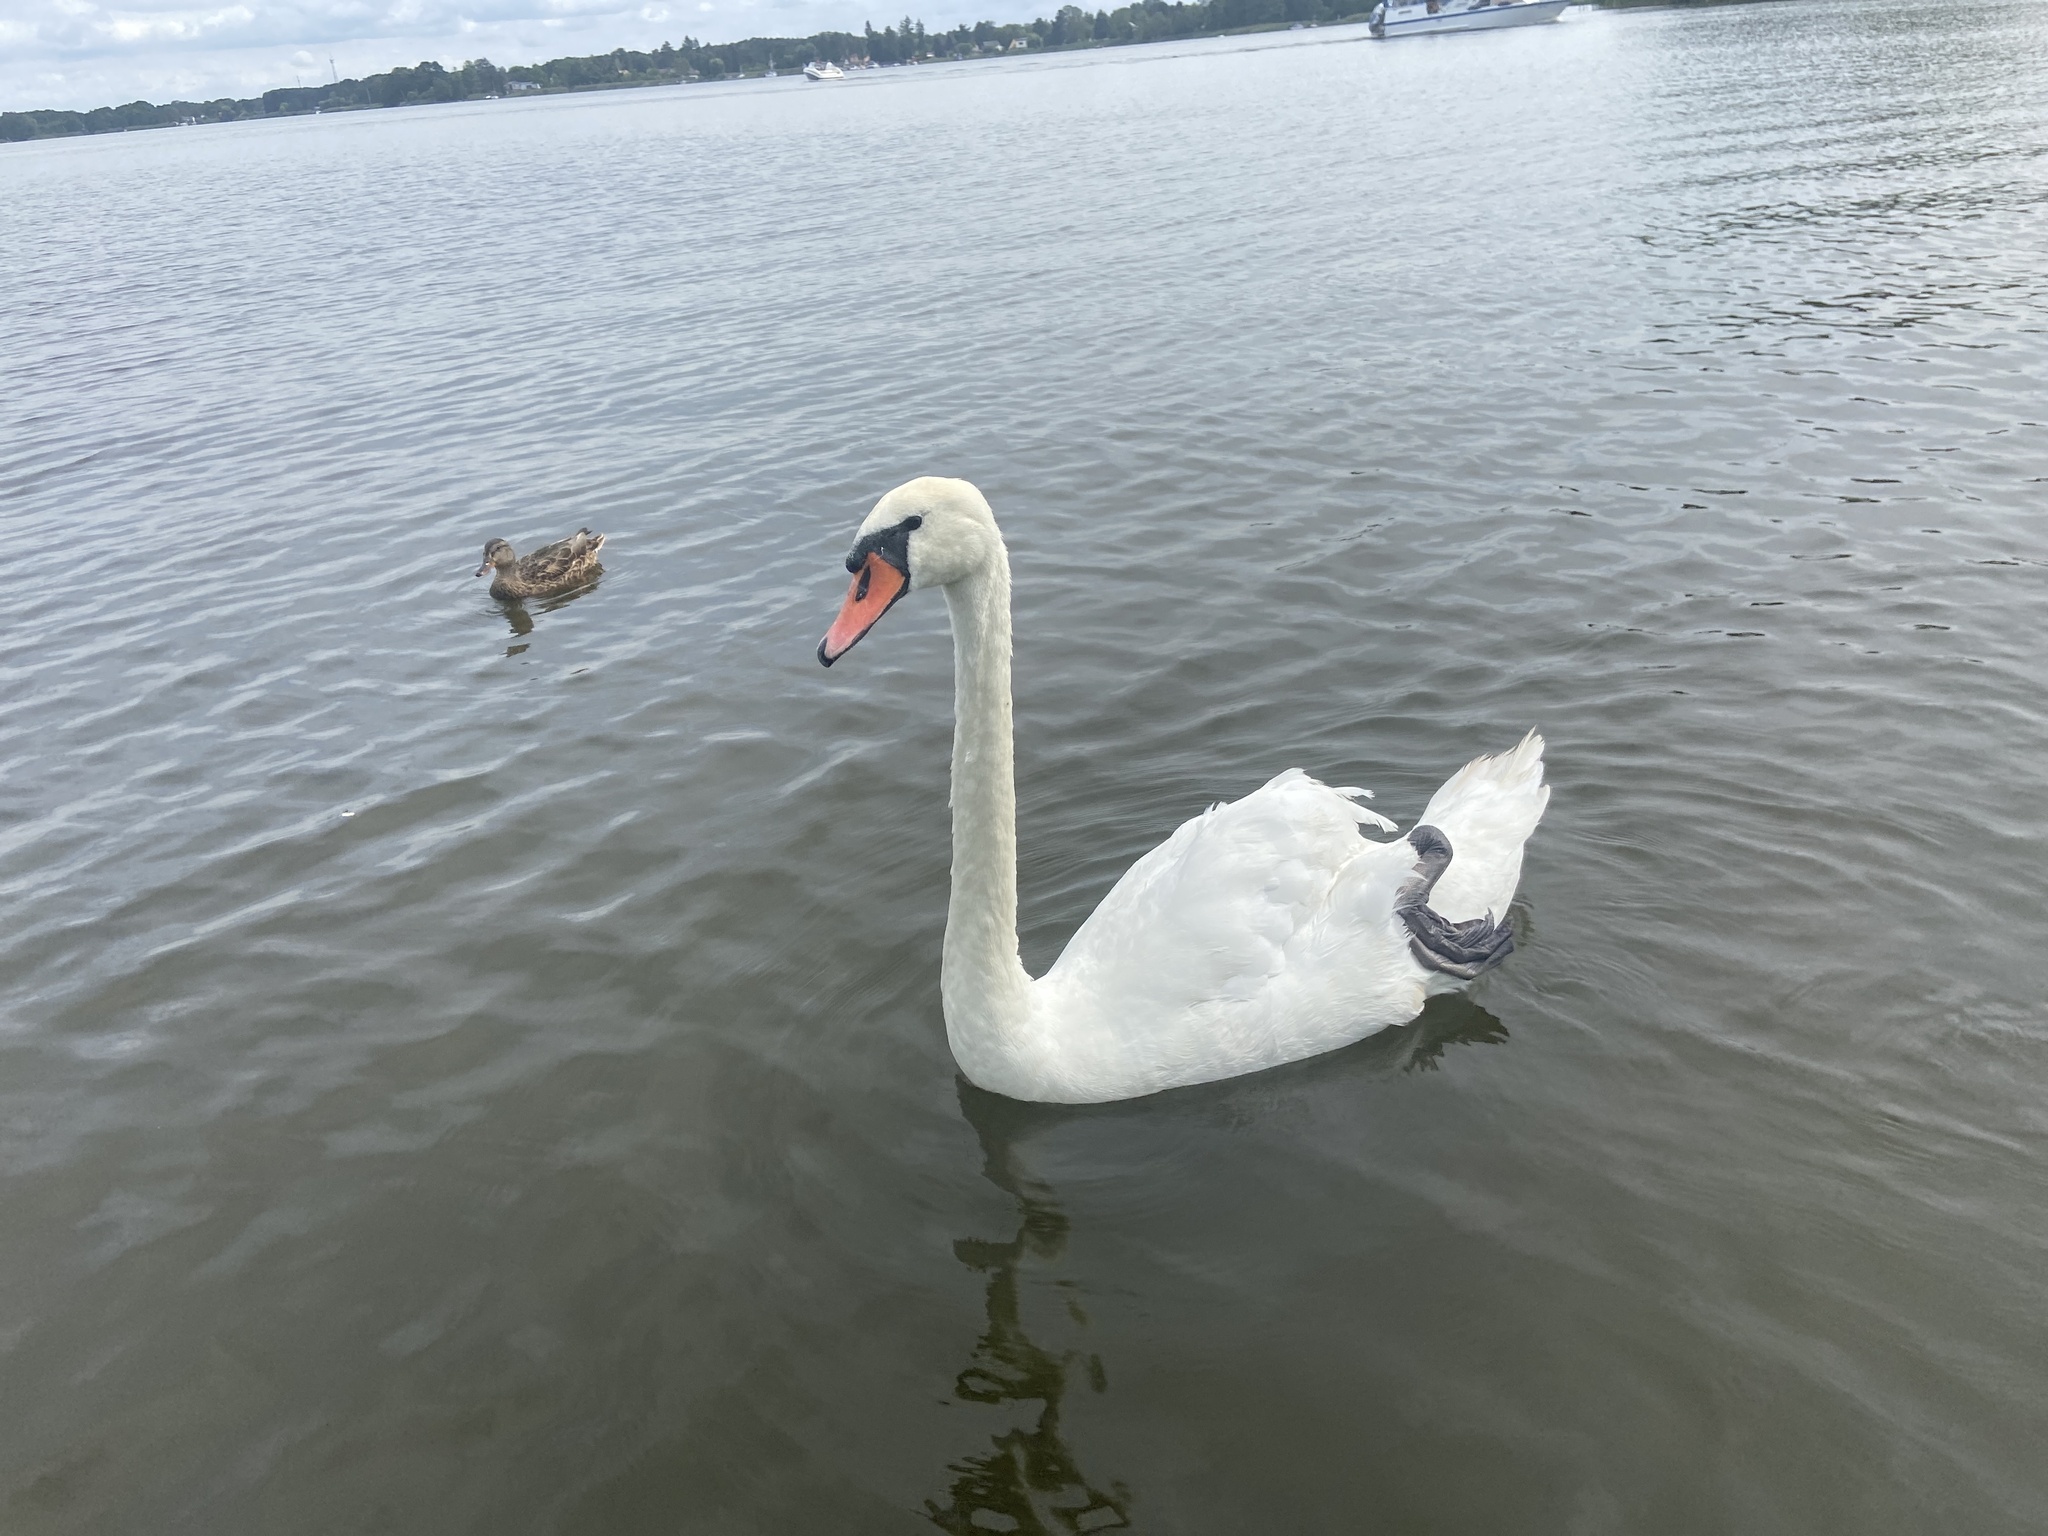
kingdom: Animalia
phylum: Chordata
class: Aves
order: Anseriformes
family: Anatidae
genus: Cygnus
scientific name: Cygnus olor
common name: Mute swan
